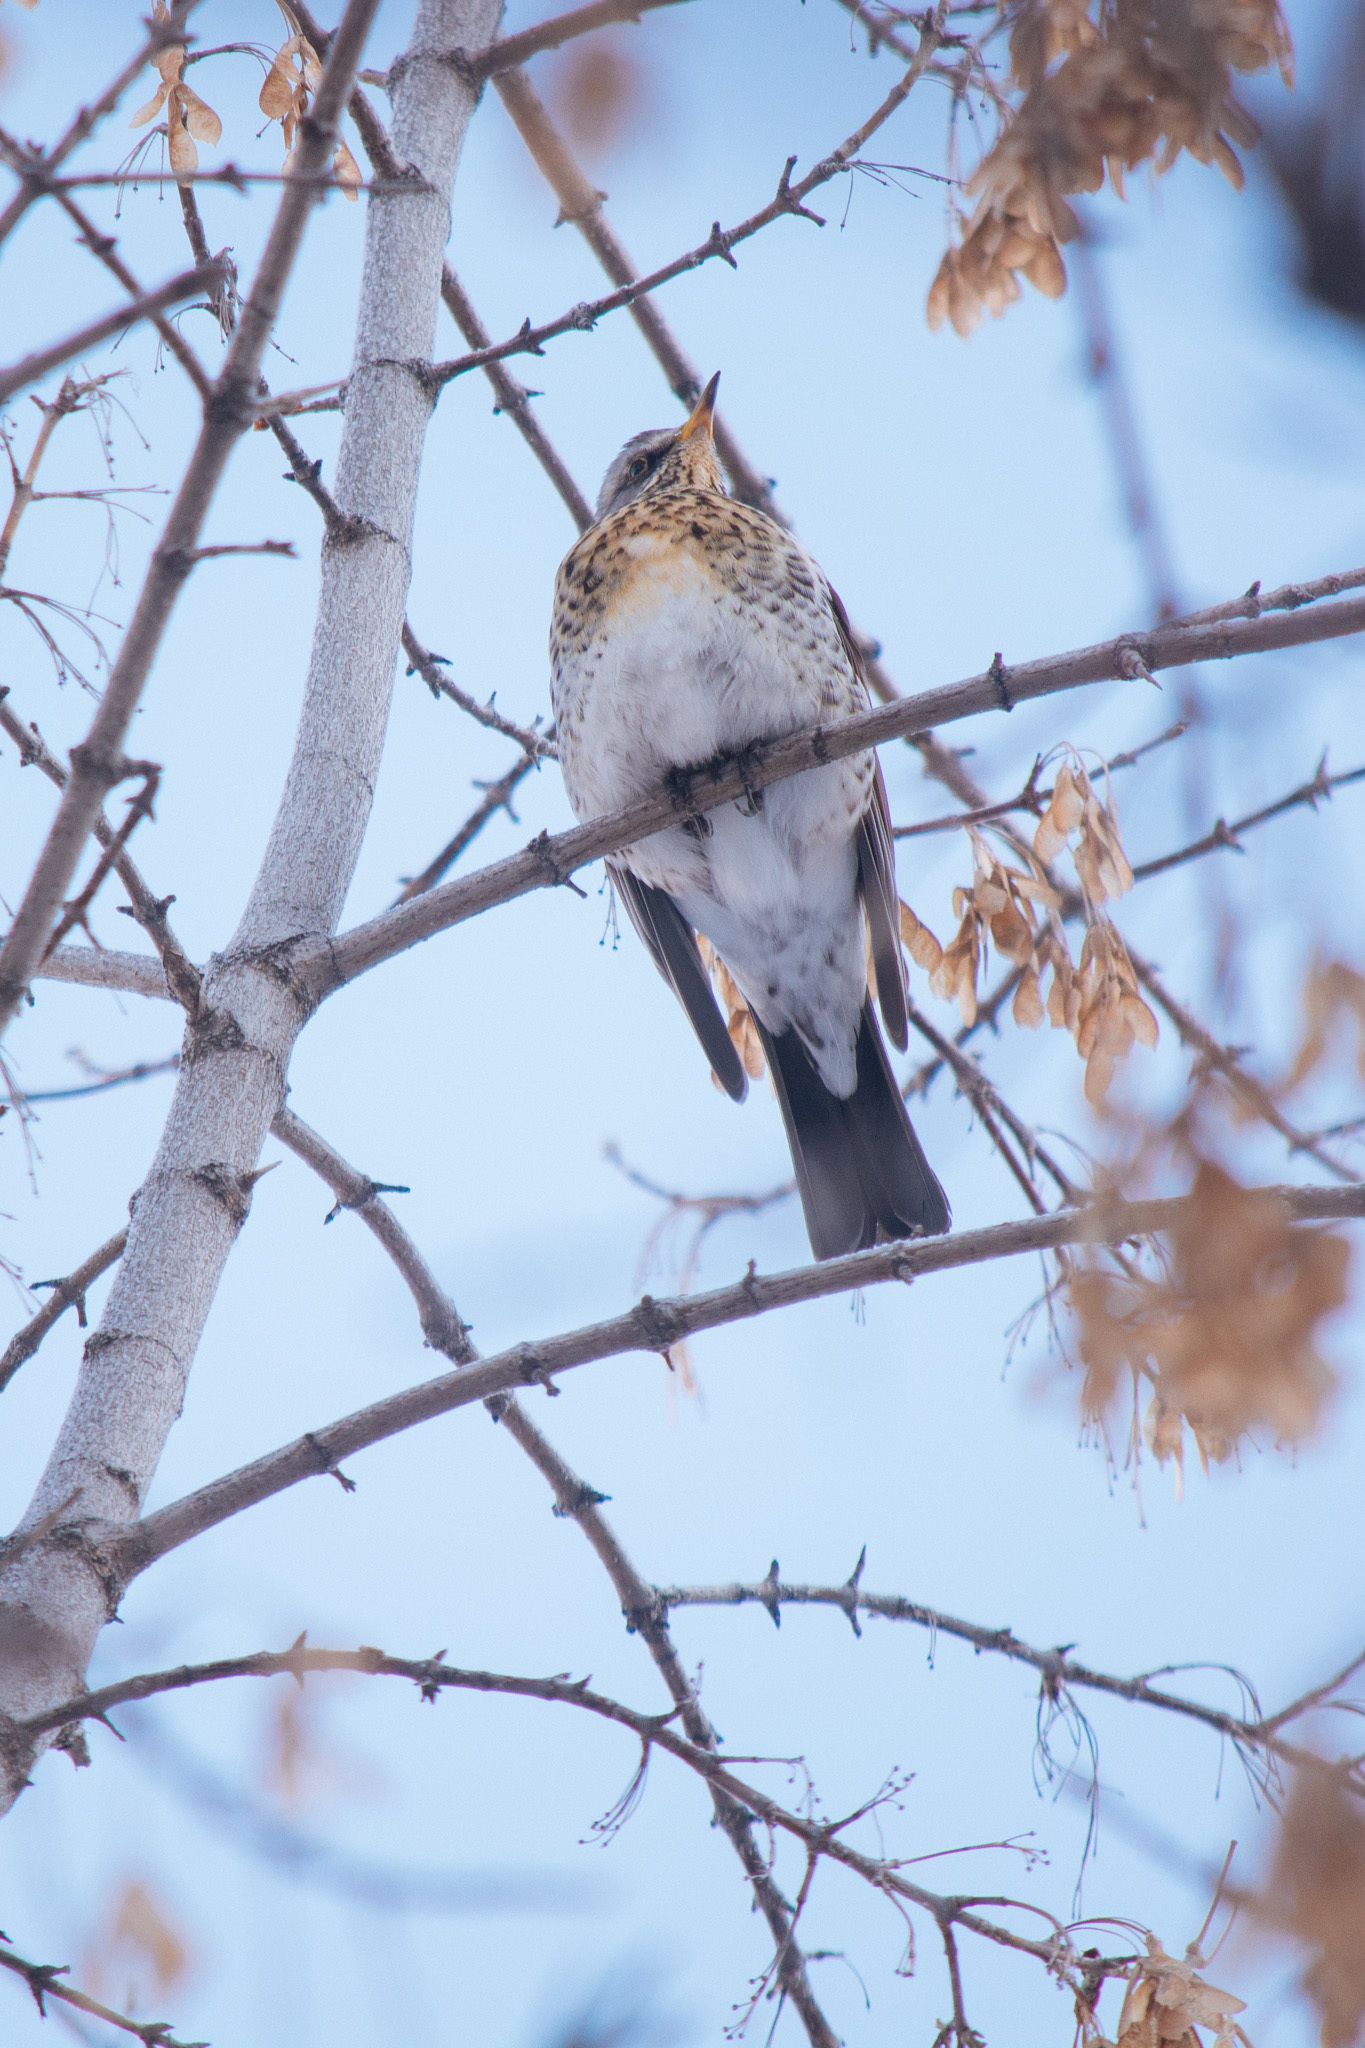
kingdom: Animalia
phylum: Chordata
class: Aves
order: Passeriformes
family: Turdidae
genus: Turdus
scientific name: Turdus pilaris
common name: Fieldfare
